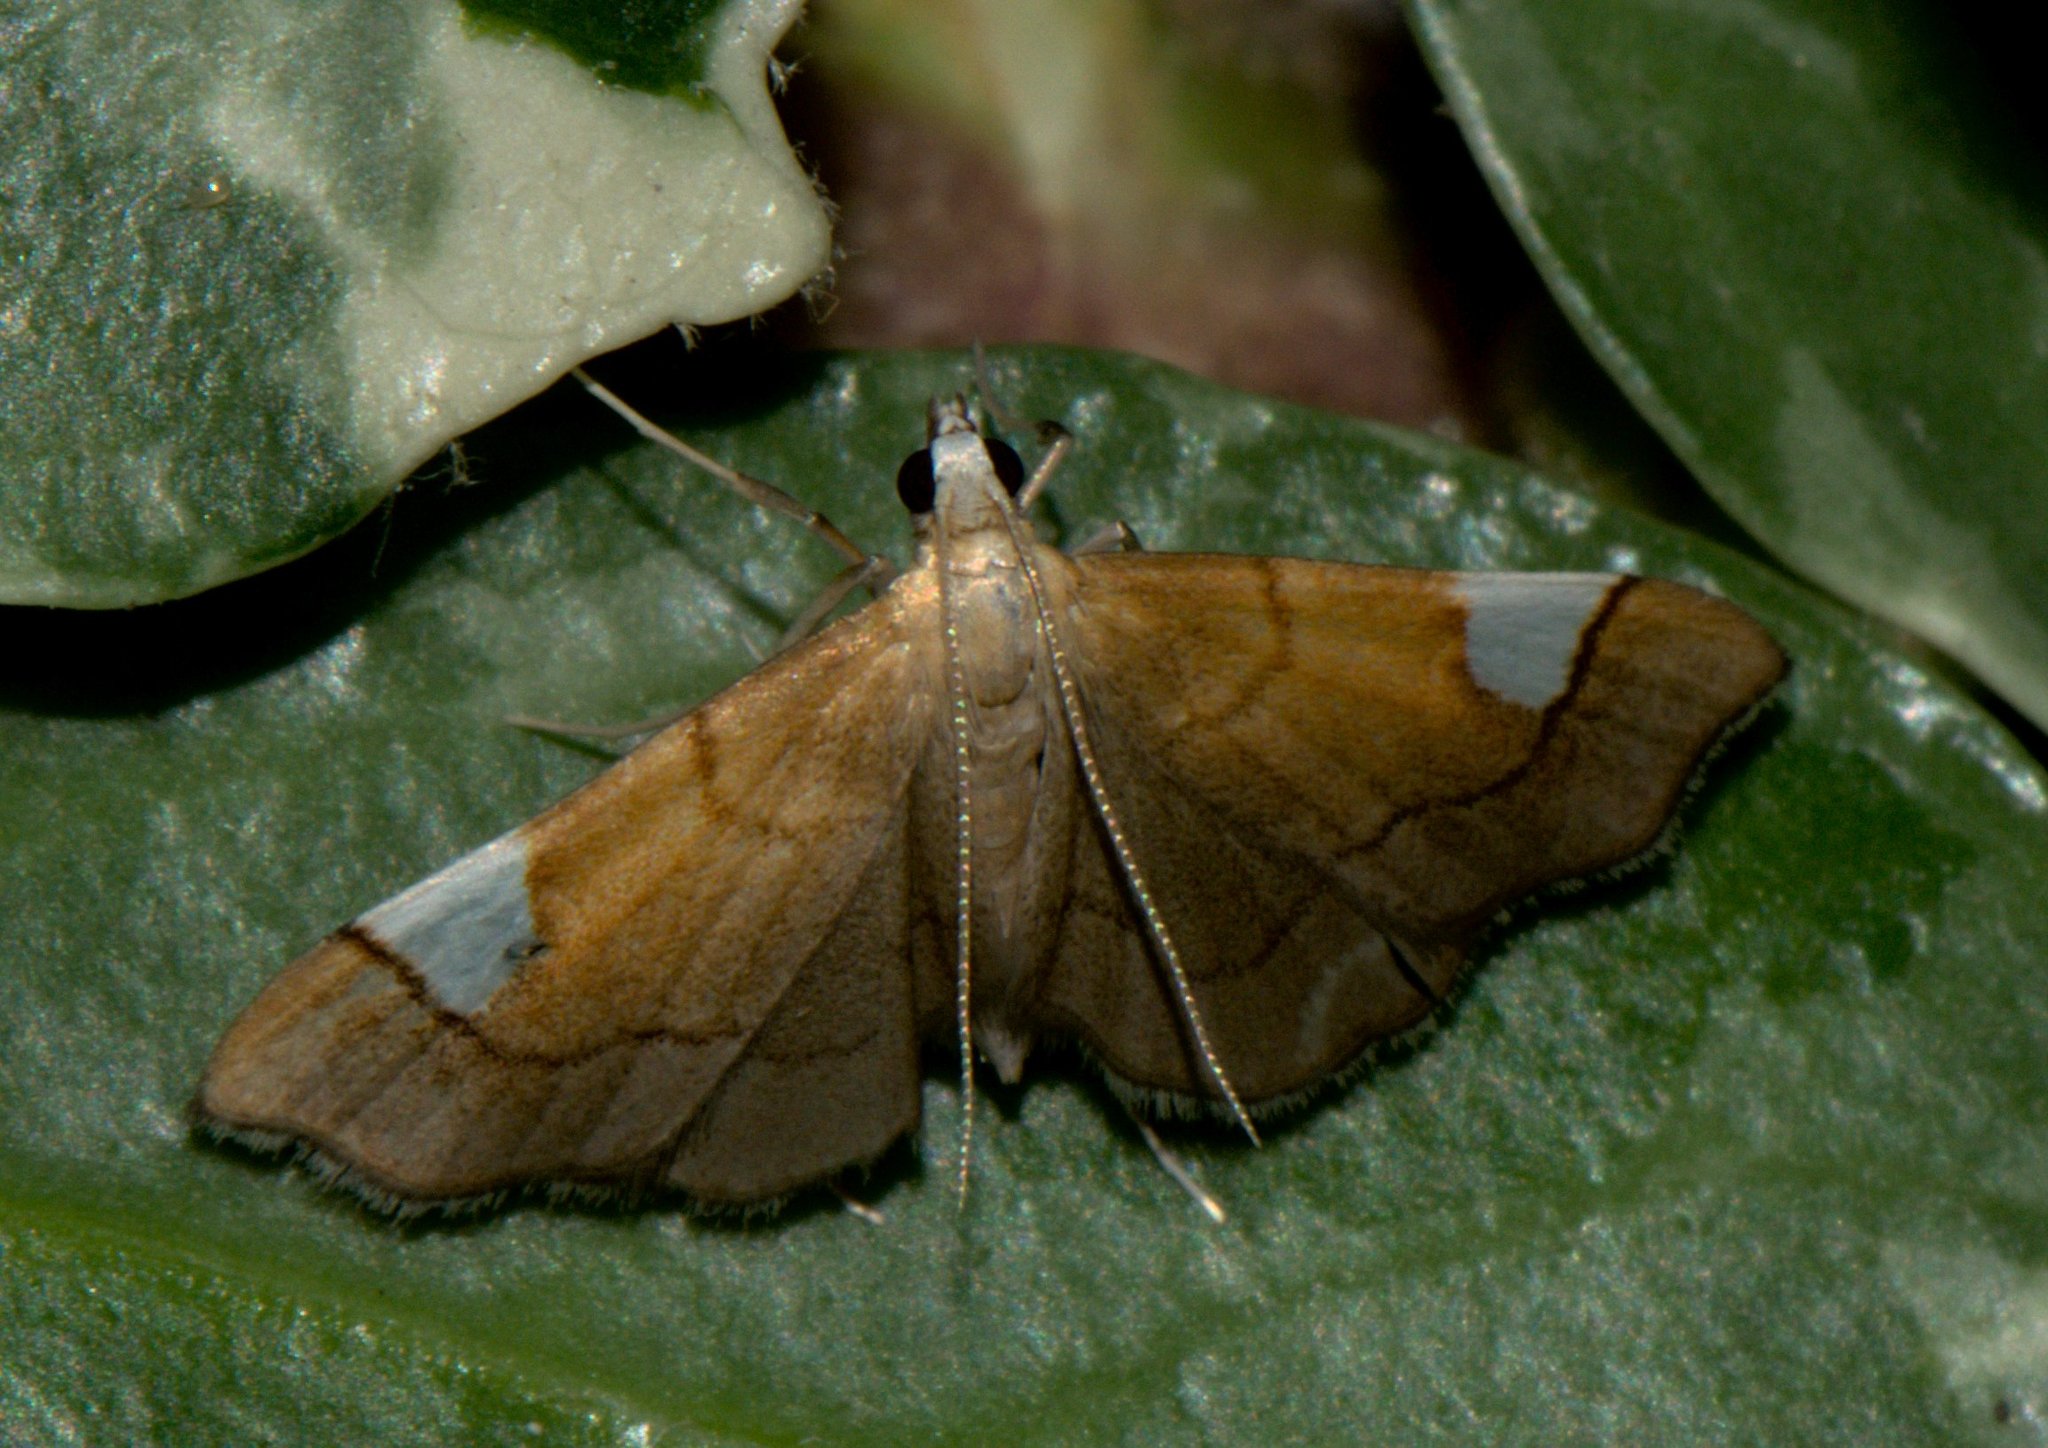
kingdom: Animalia
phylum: Arthropoda
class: Insecta
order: Lepidoptera
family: Crambidae
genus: Diathraustodes
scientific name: Diathraustodes fulvofusa
